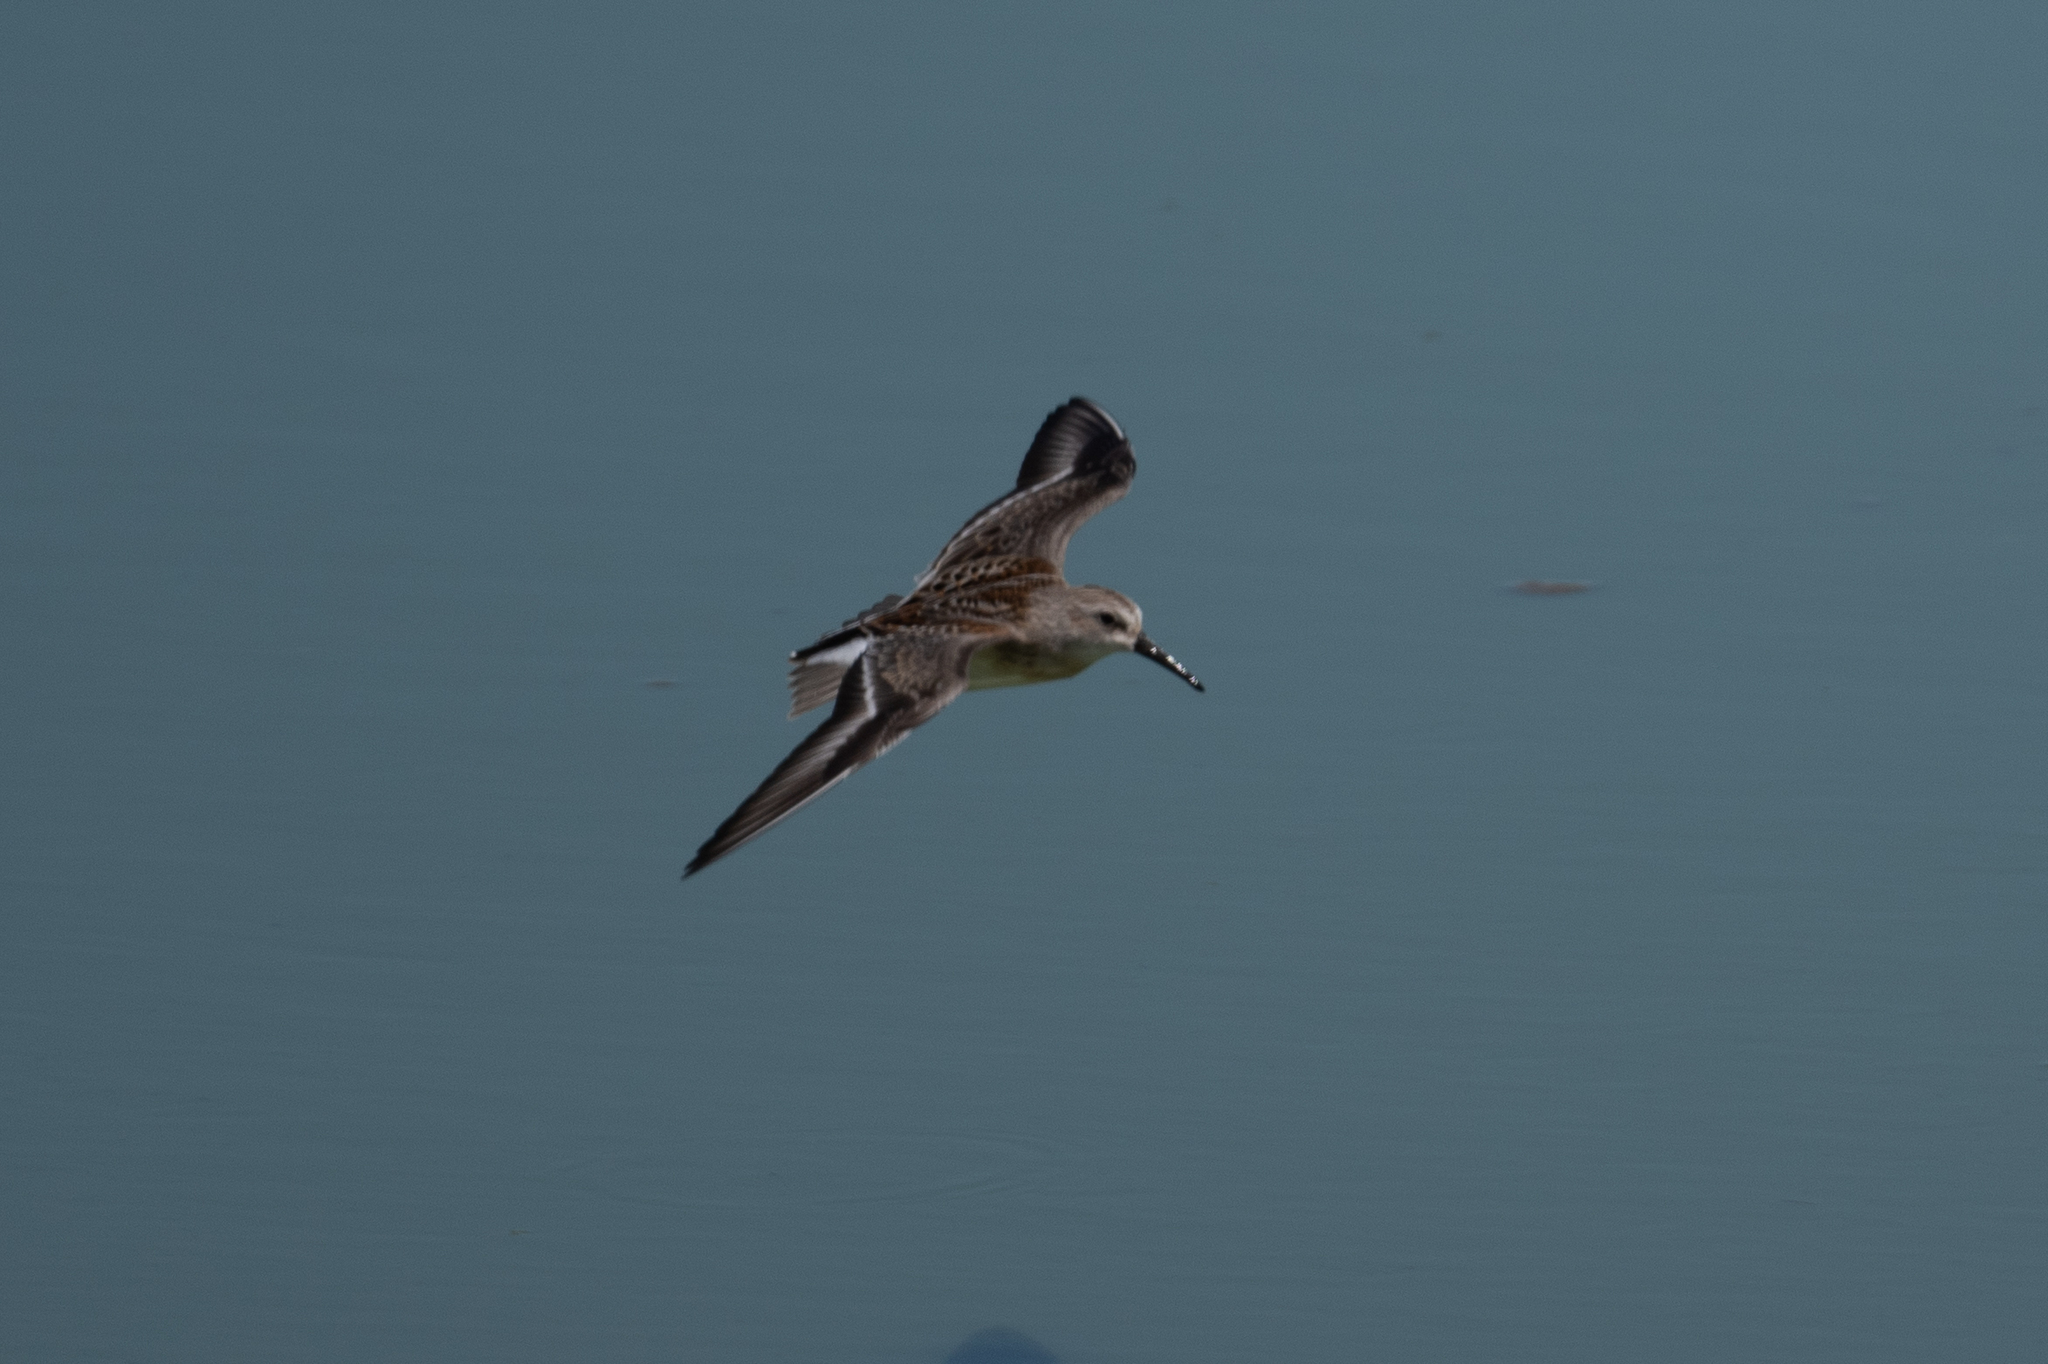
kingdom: Animalia
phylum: Chordata
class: Aves
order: Charadriiformes
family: Scolopacidae
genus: Calidris
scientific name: Calidris mauri
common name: Western sandpiper
